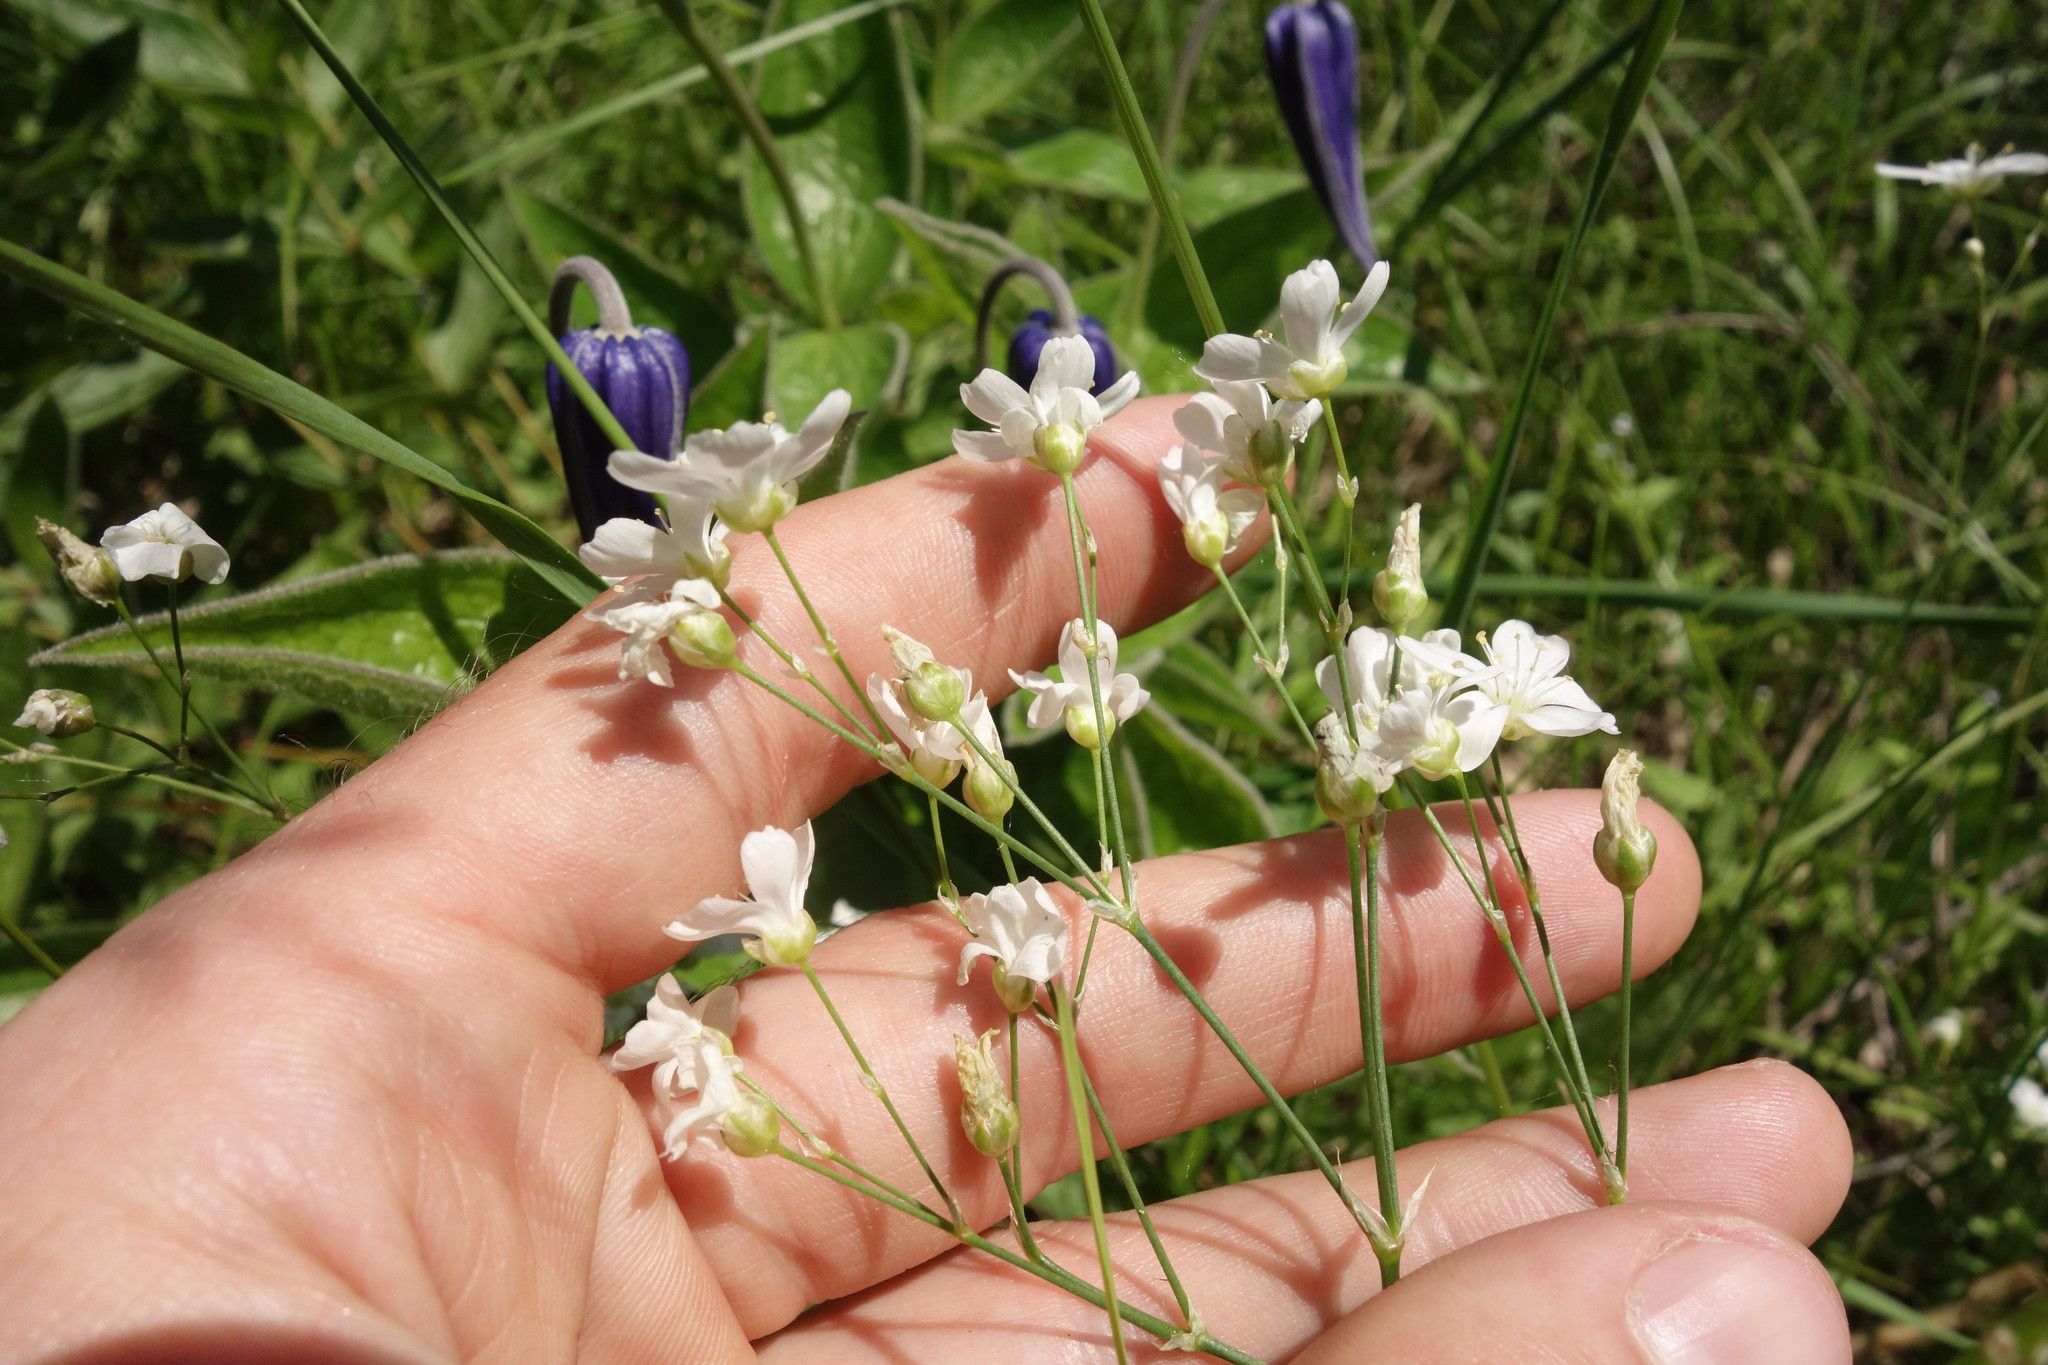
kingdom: Plantae
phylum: Tracheophyta
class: Magnoliopsida
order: Caryophyllales
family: Caryophyllaceae
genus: Eremogone
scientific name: Eremogone saxatilis
